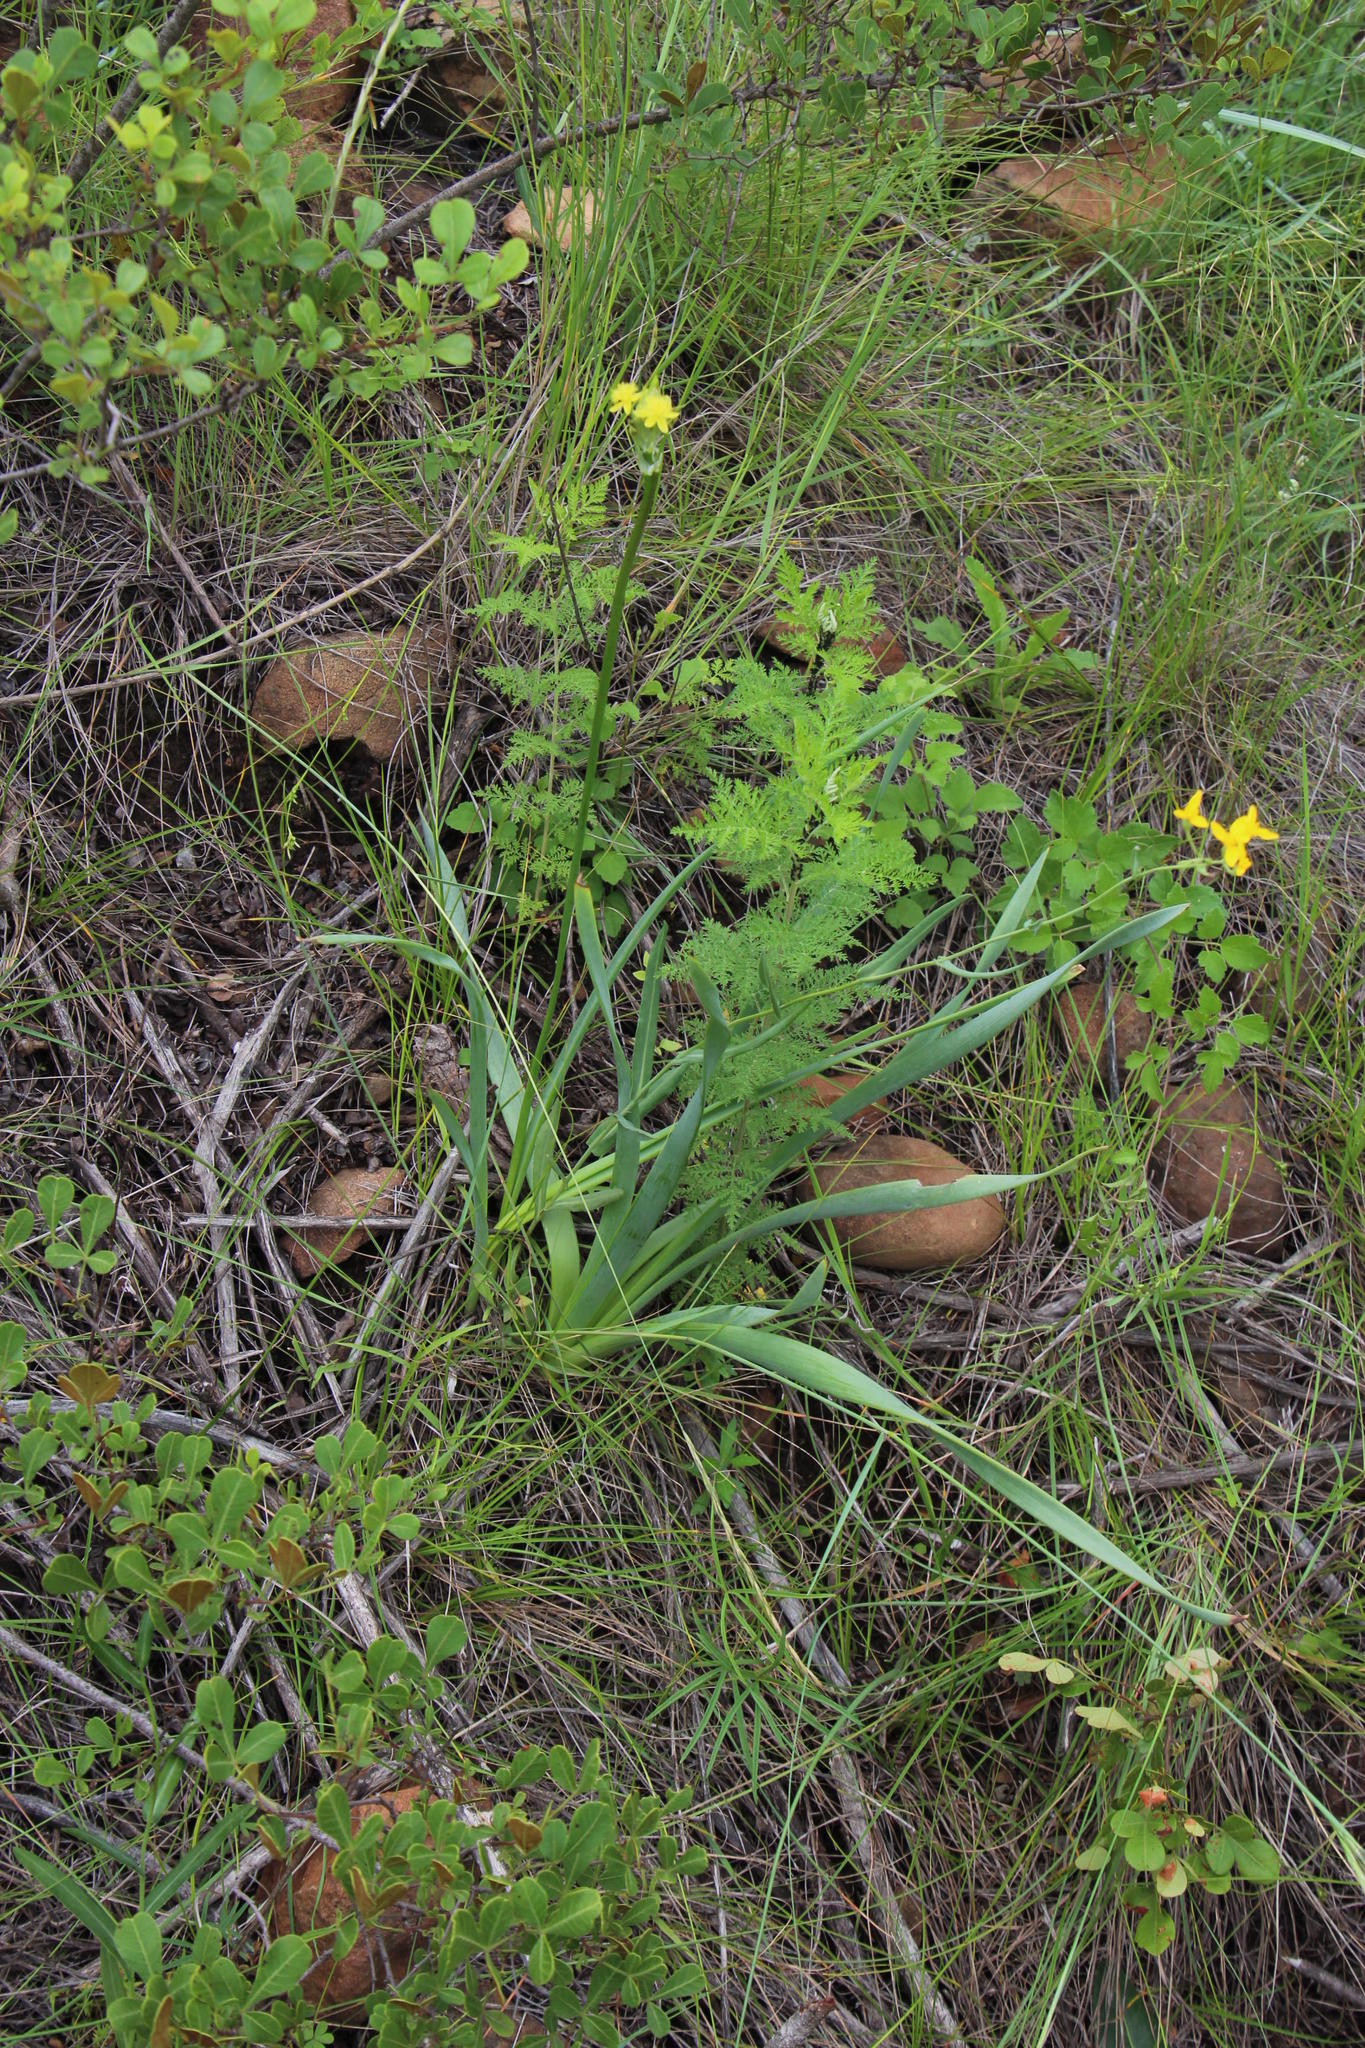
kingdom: Plantae
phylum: Tracheophyta
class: Liliopsida
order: Asparagales
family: Asphodelaceae
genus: Bulbine
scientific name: Bulbine narcissifolia
